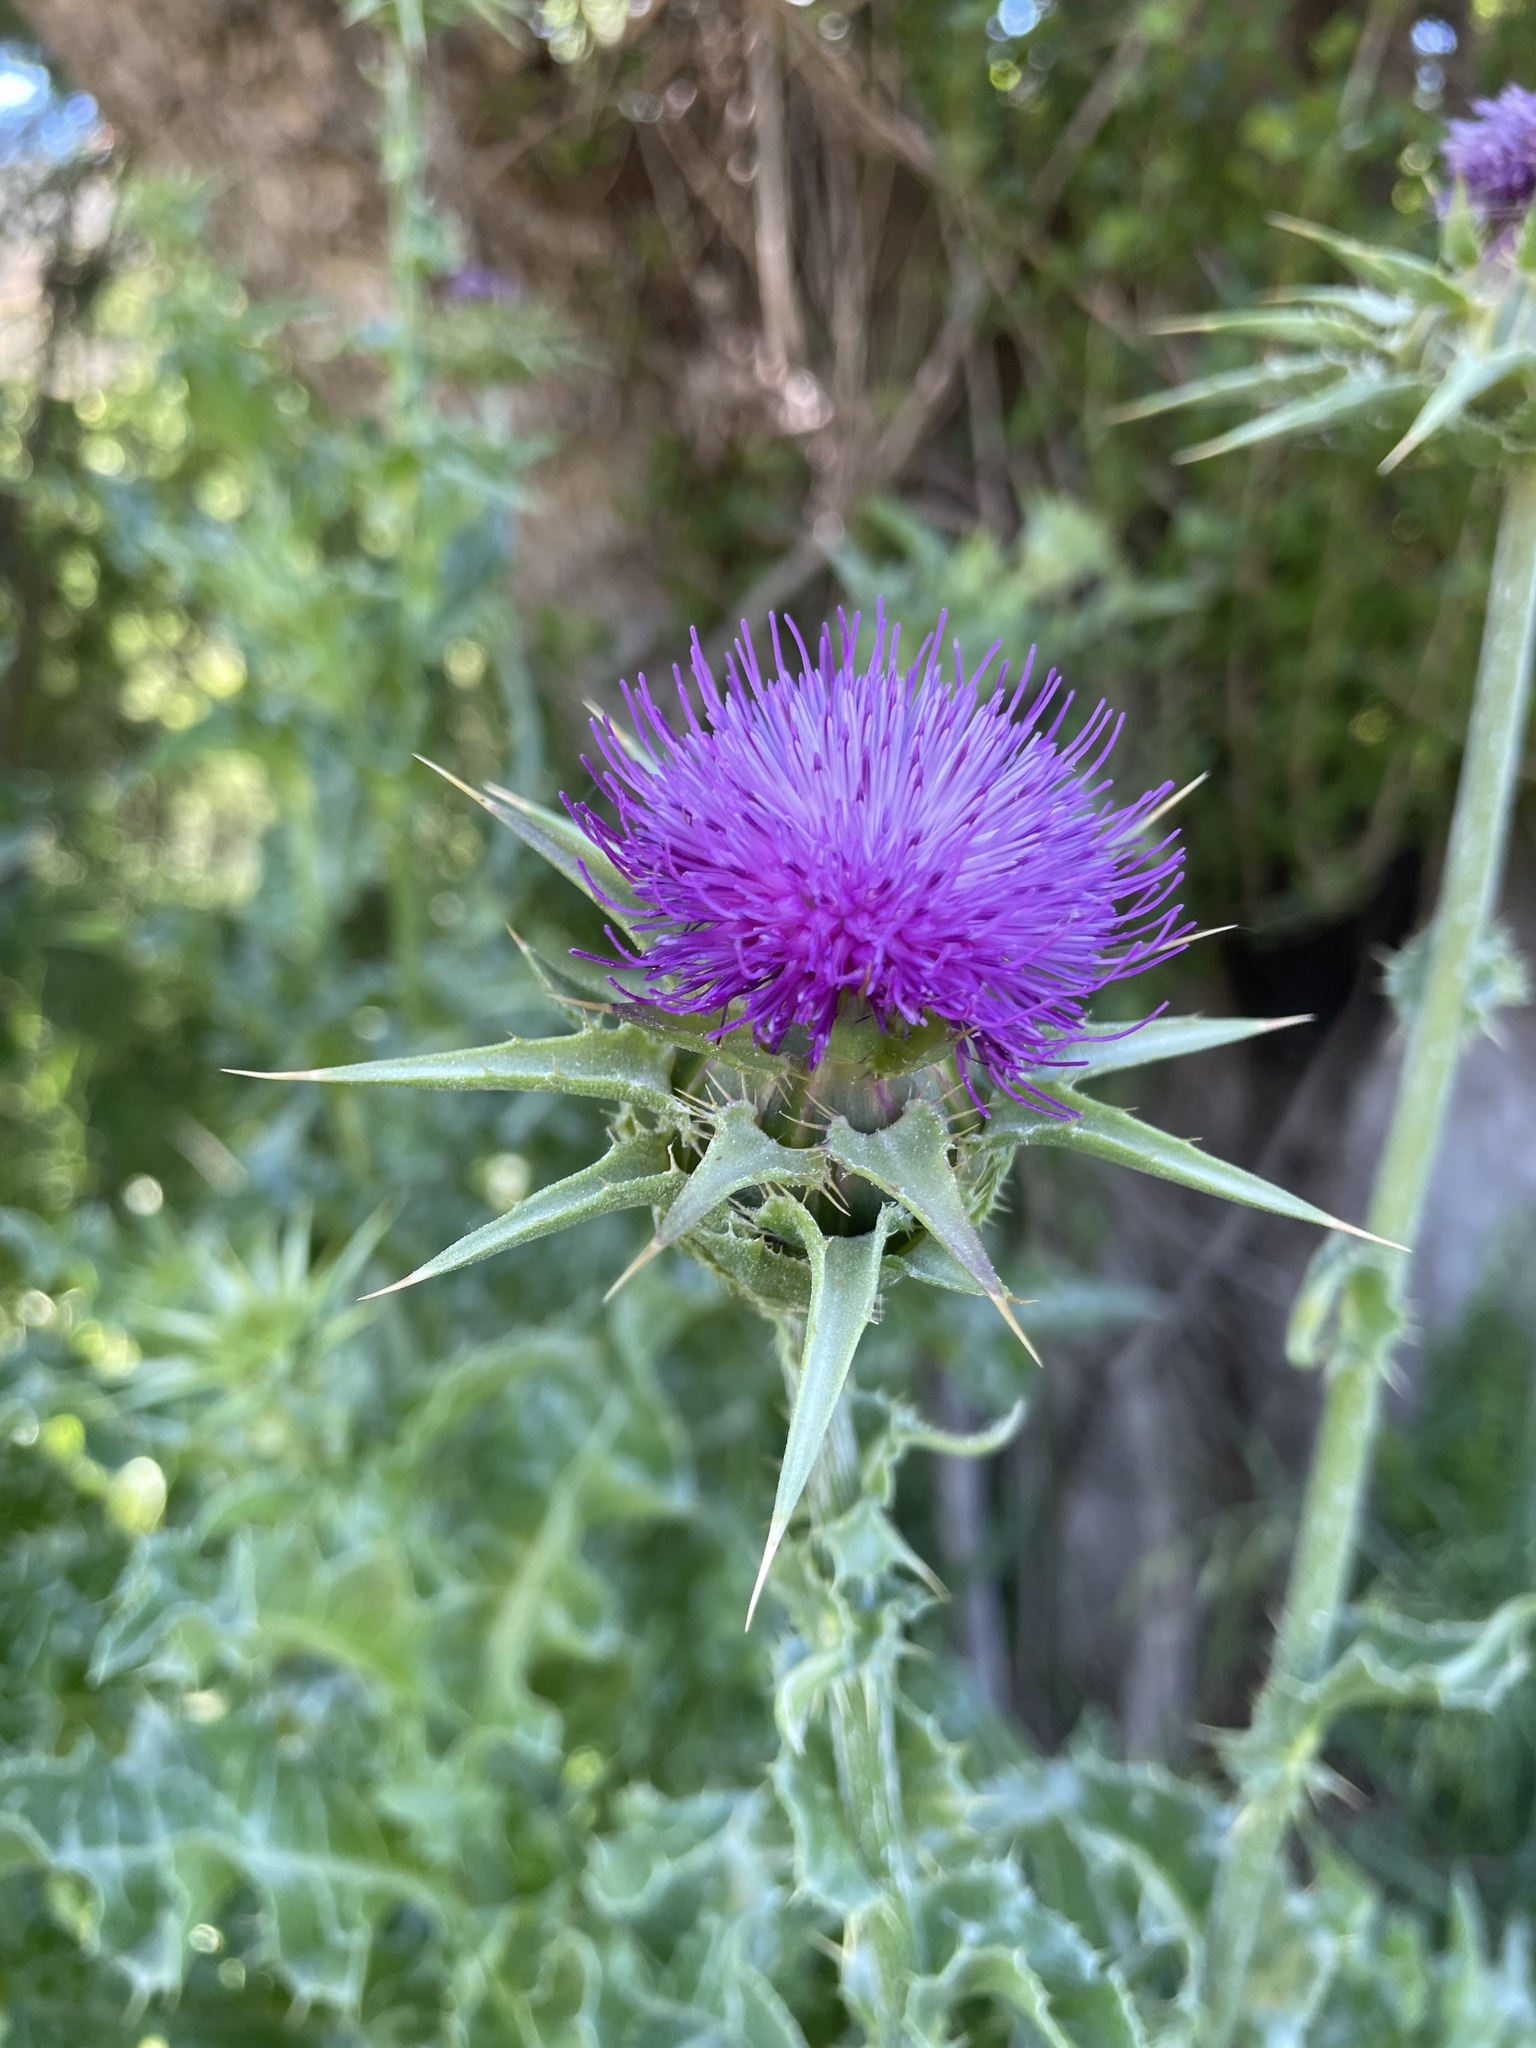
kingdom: Plantae
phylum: Tracheophyta
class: Magnoliopsida
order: Asterales
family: Asteraceae
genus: Silybum
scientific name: Silybum marianum
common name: Milk thistle
